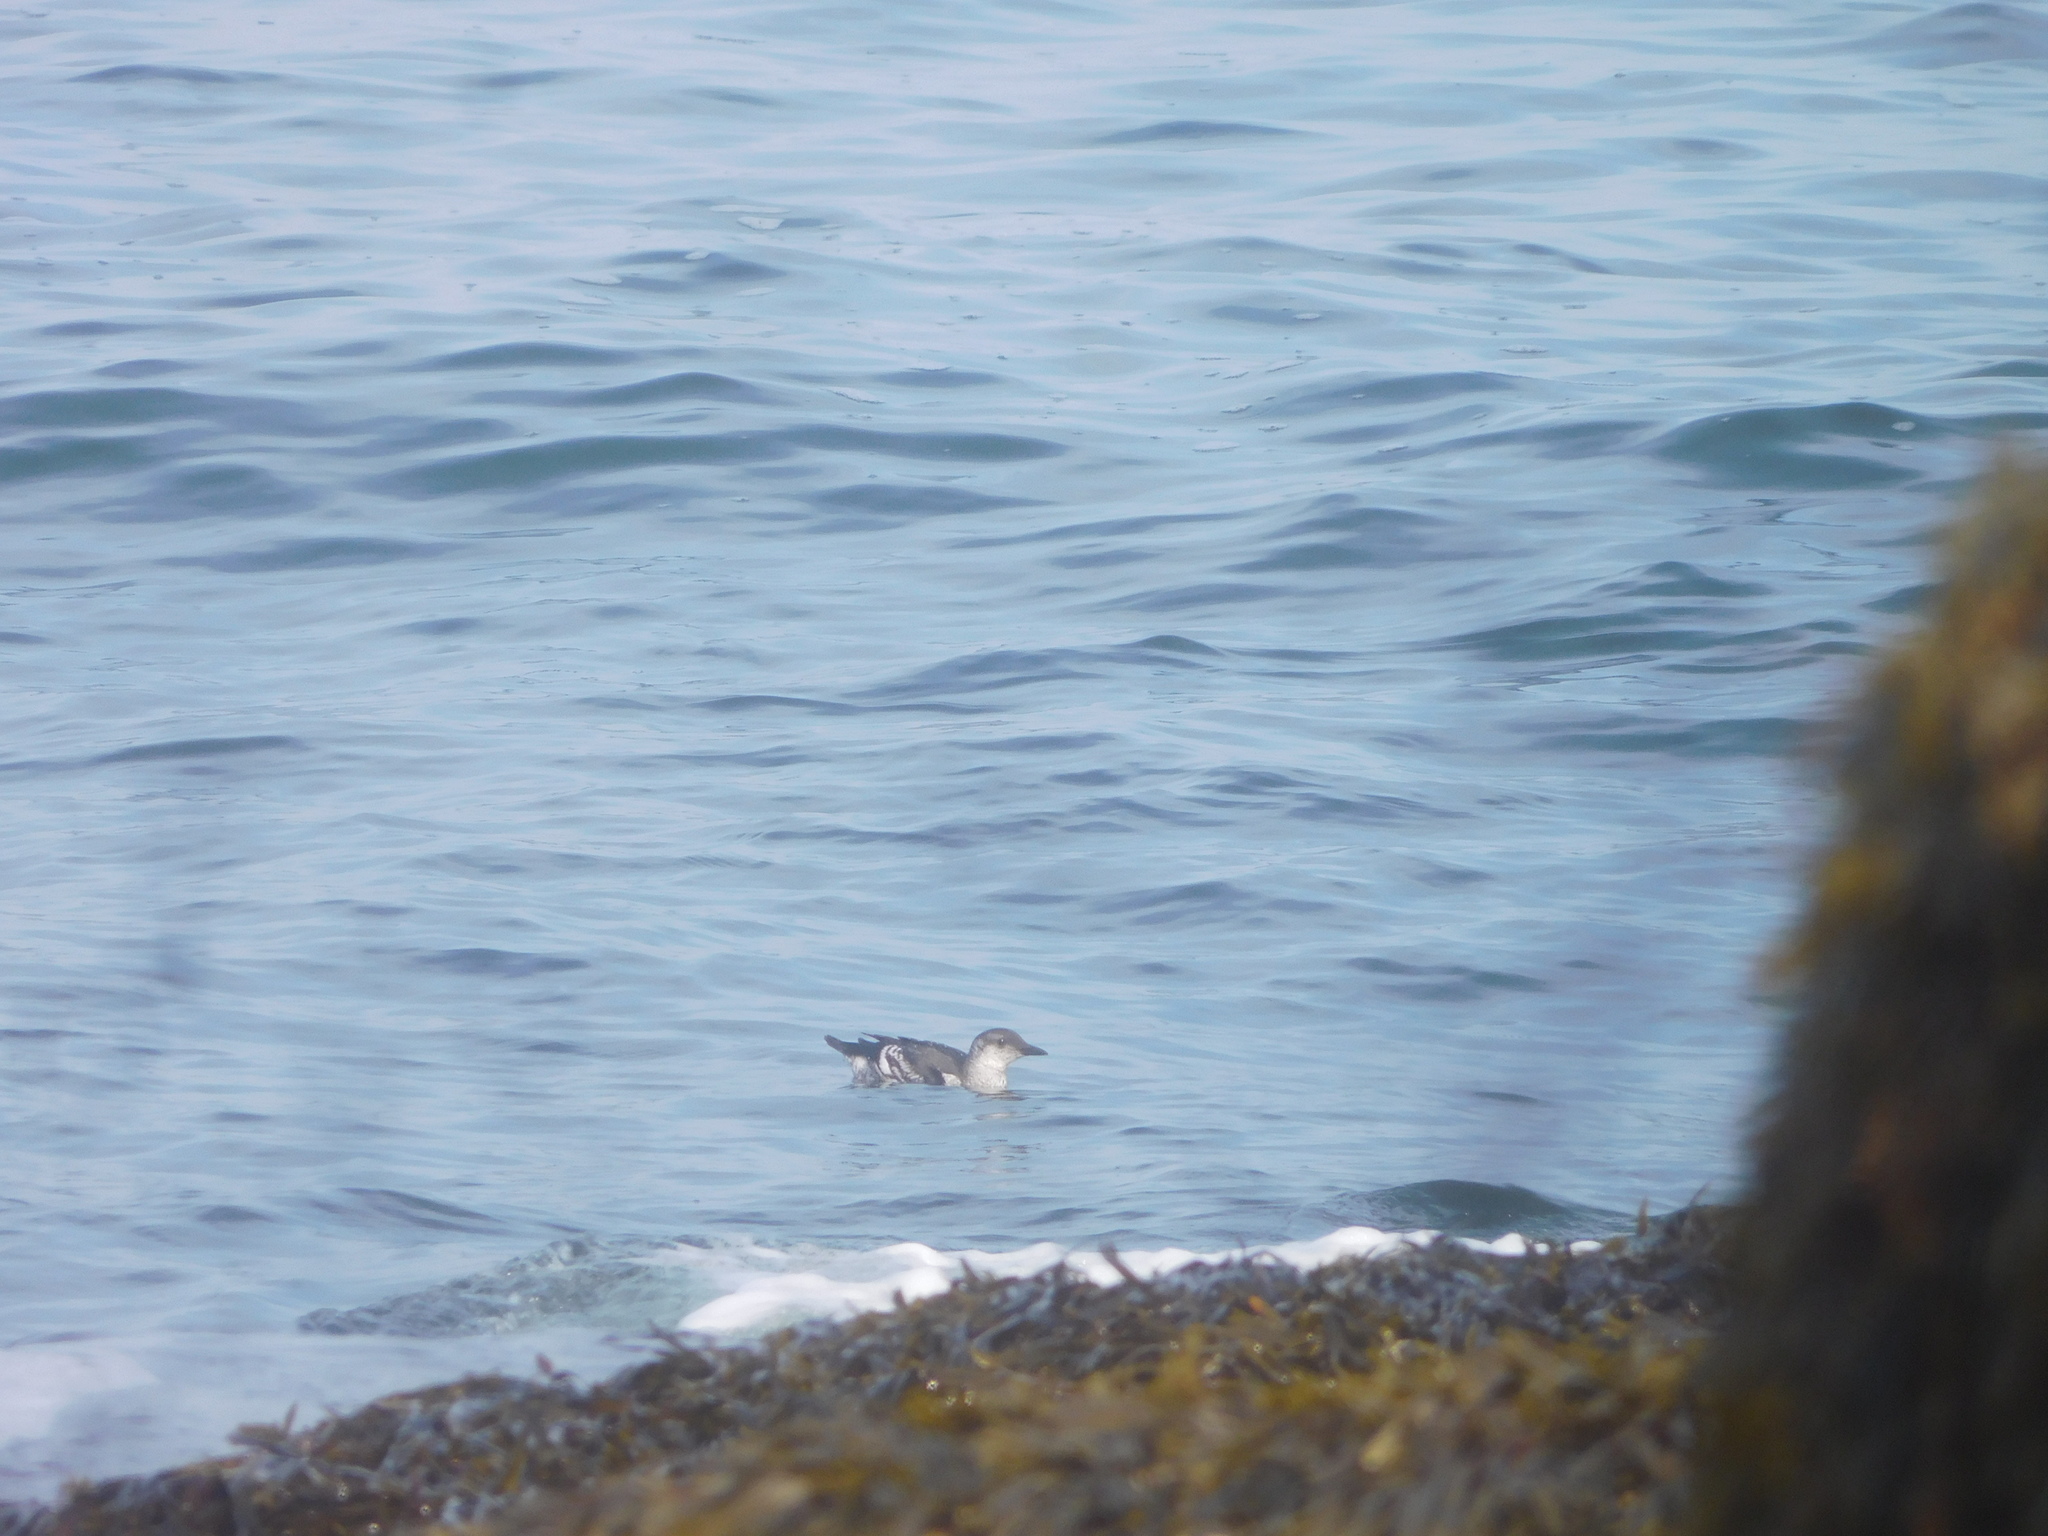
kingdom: Animalia
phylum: Chordata
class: Aves
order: Charadriiformes
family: Alcidae
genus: Cepphus
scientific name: Cepphus grylle
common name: Black guillemot
